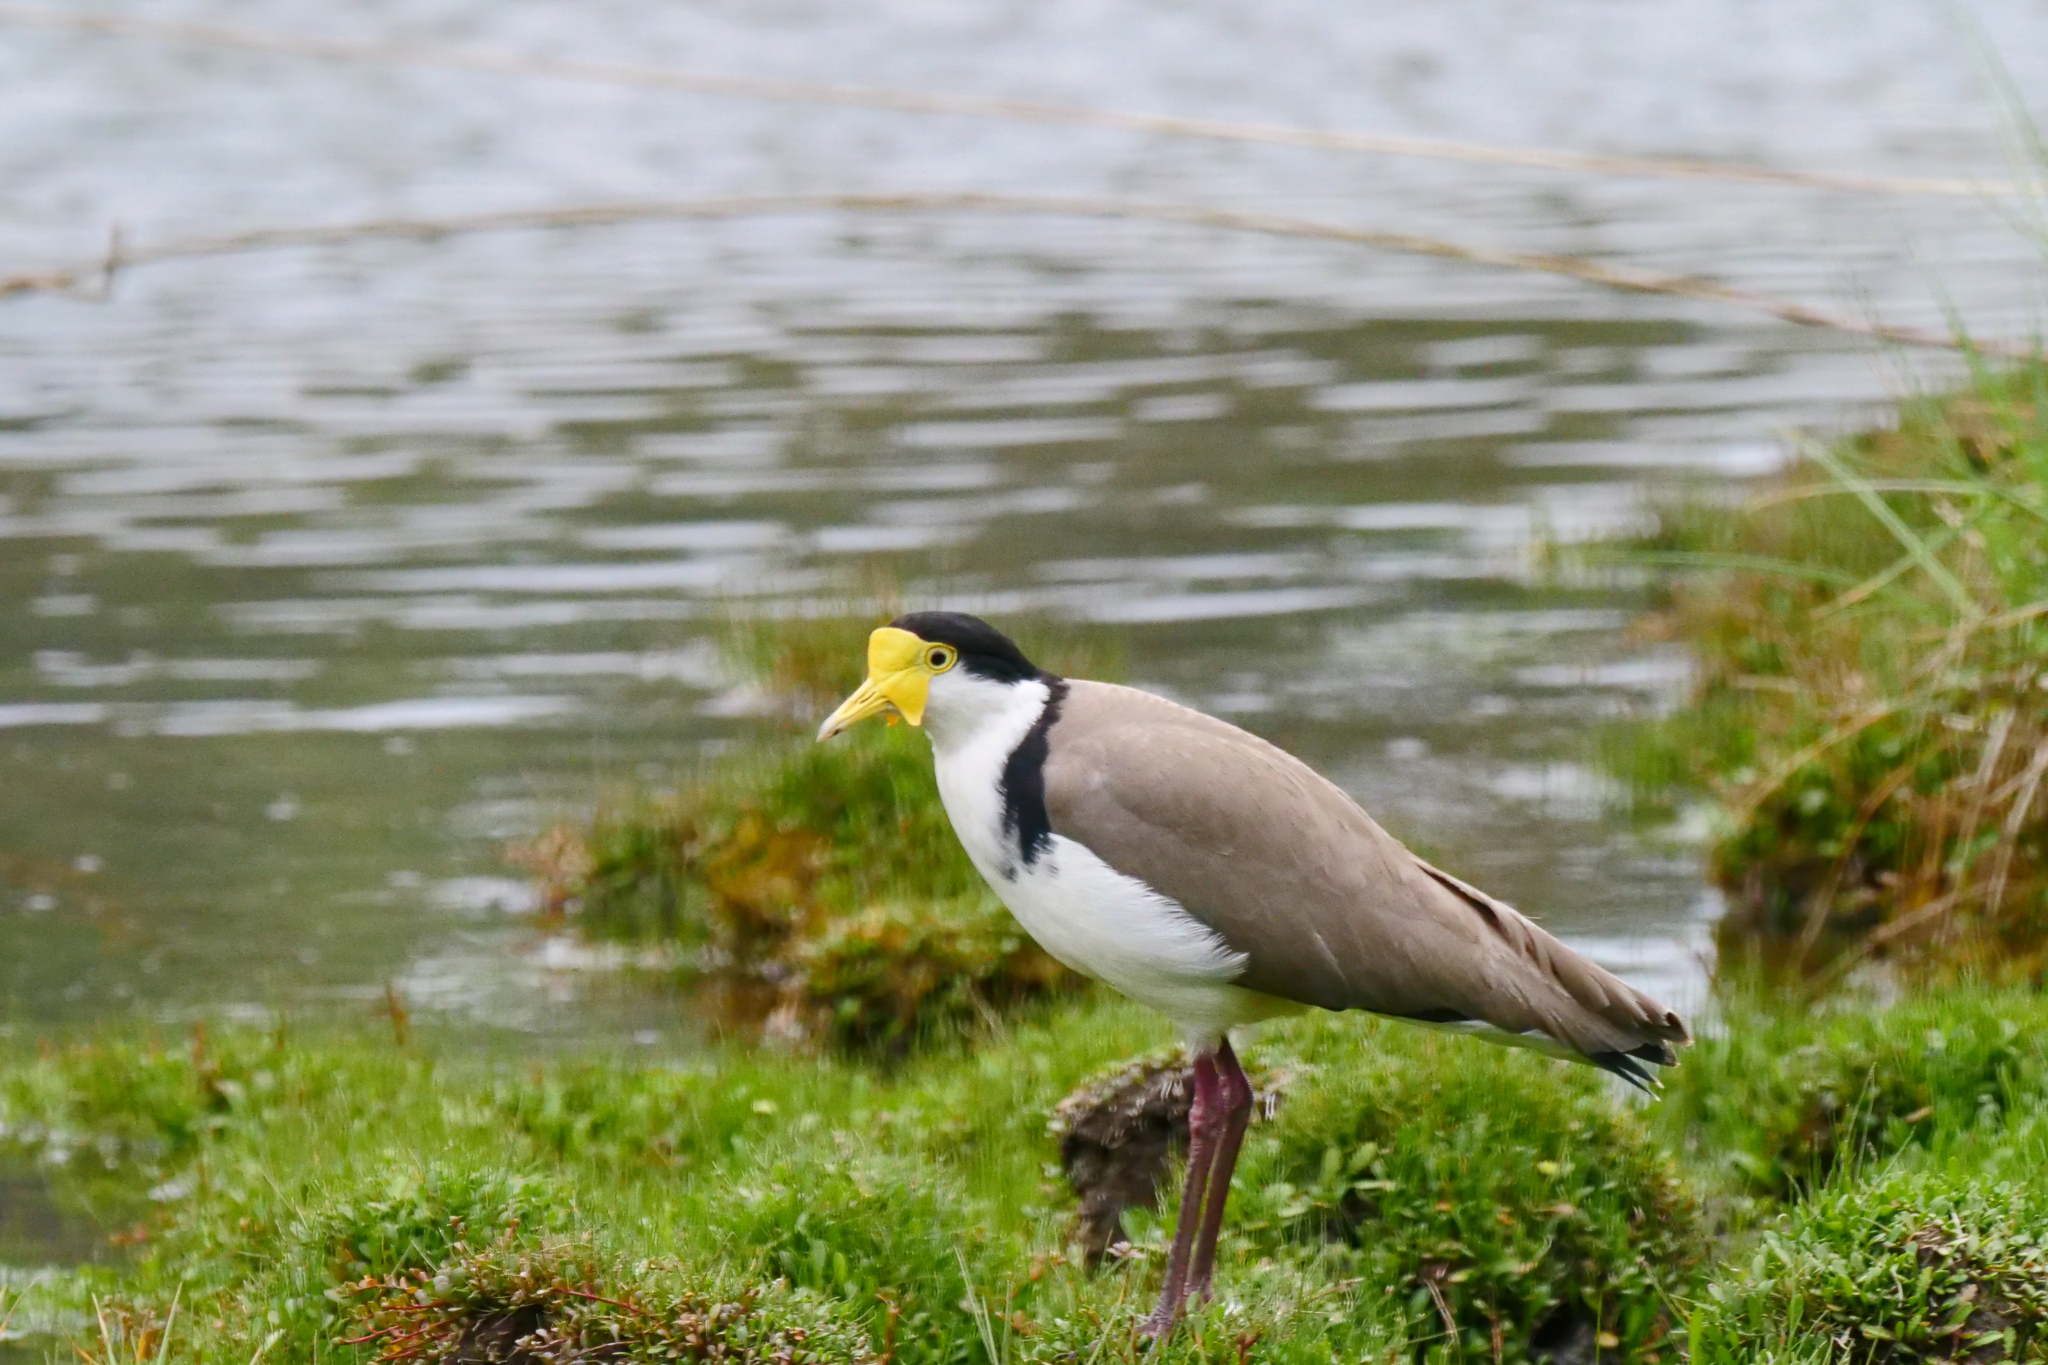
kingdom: Animalia
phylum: Chordata
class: Aves
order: Charadriiformes
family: Charadriidae
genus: Vanellus
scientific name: Vanellus miles
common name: Masked lapwing
